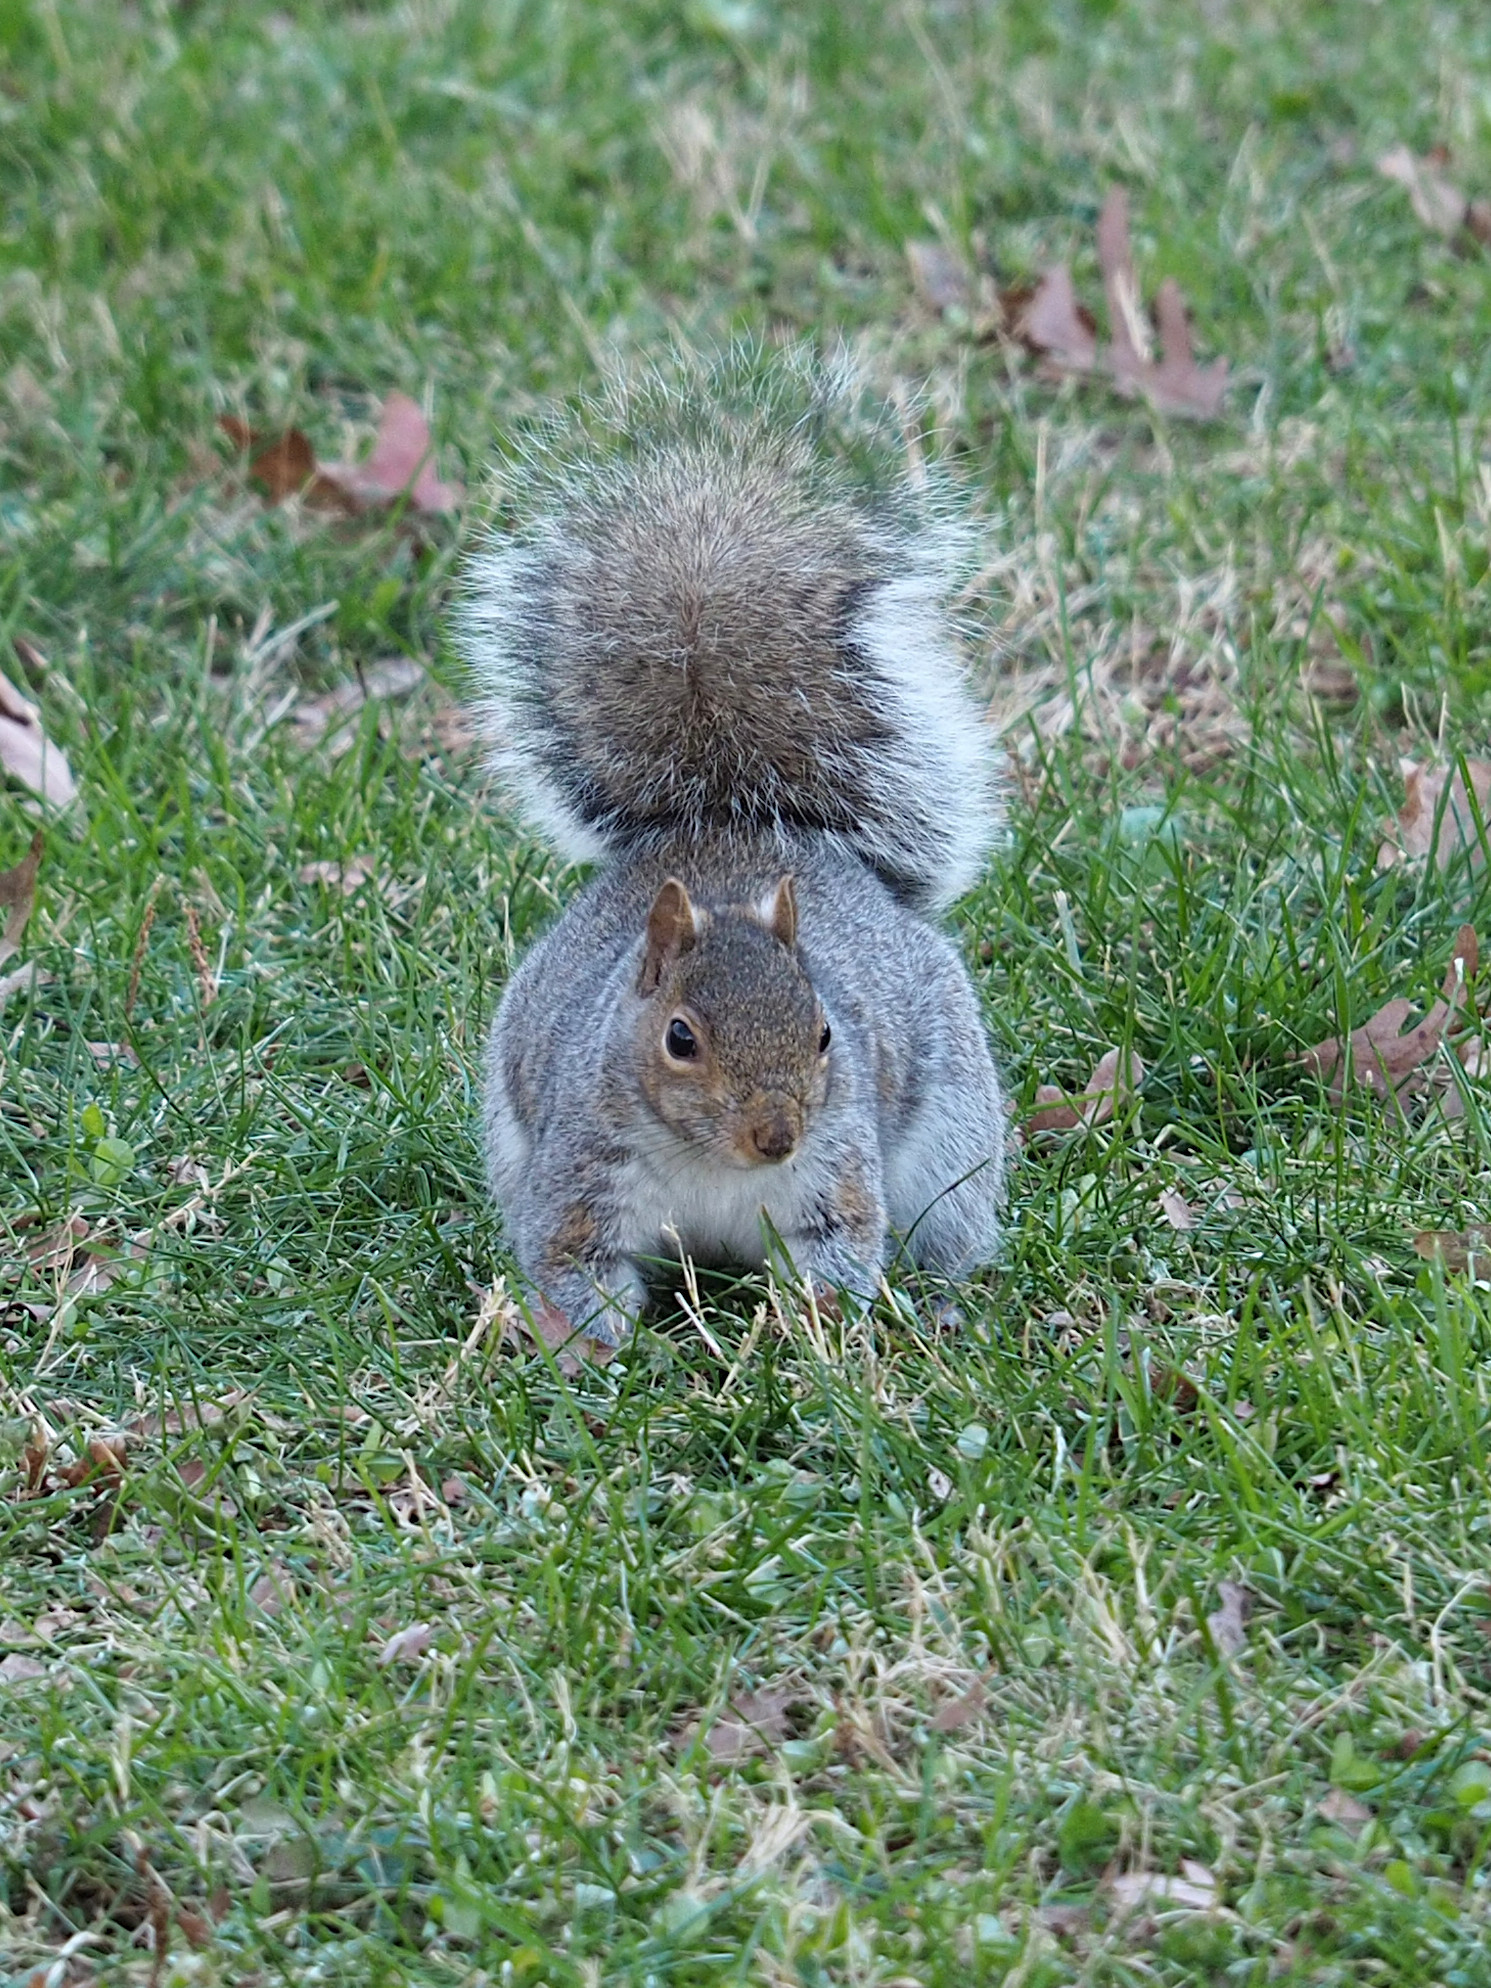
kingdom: Animalia
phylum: Chordata
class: Mammalia
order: Rodentia
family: Sciuridae
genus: Sciurus
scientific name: Sciurus carolinensis
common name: Eastern gray squirrel
